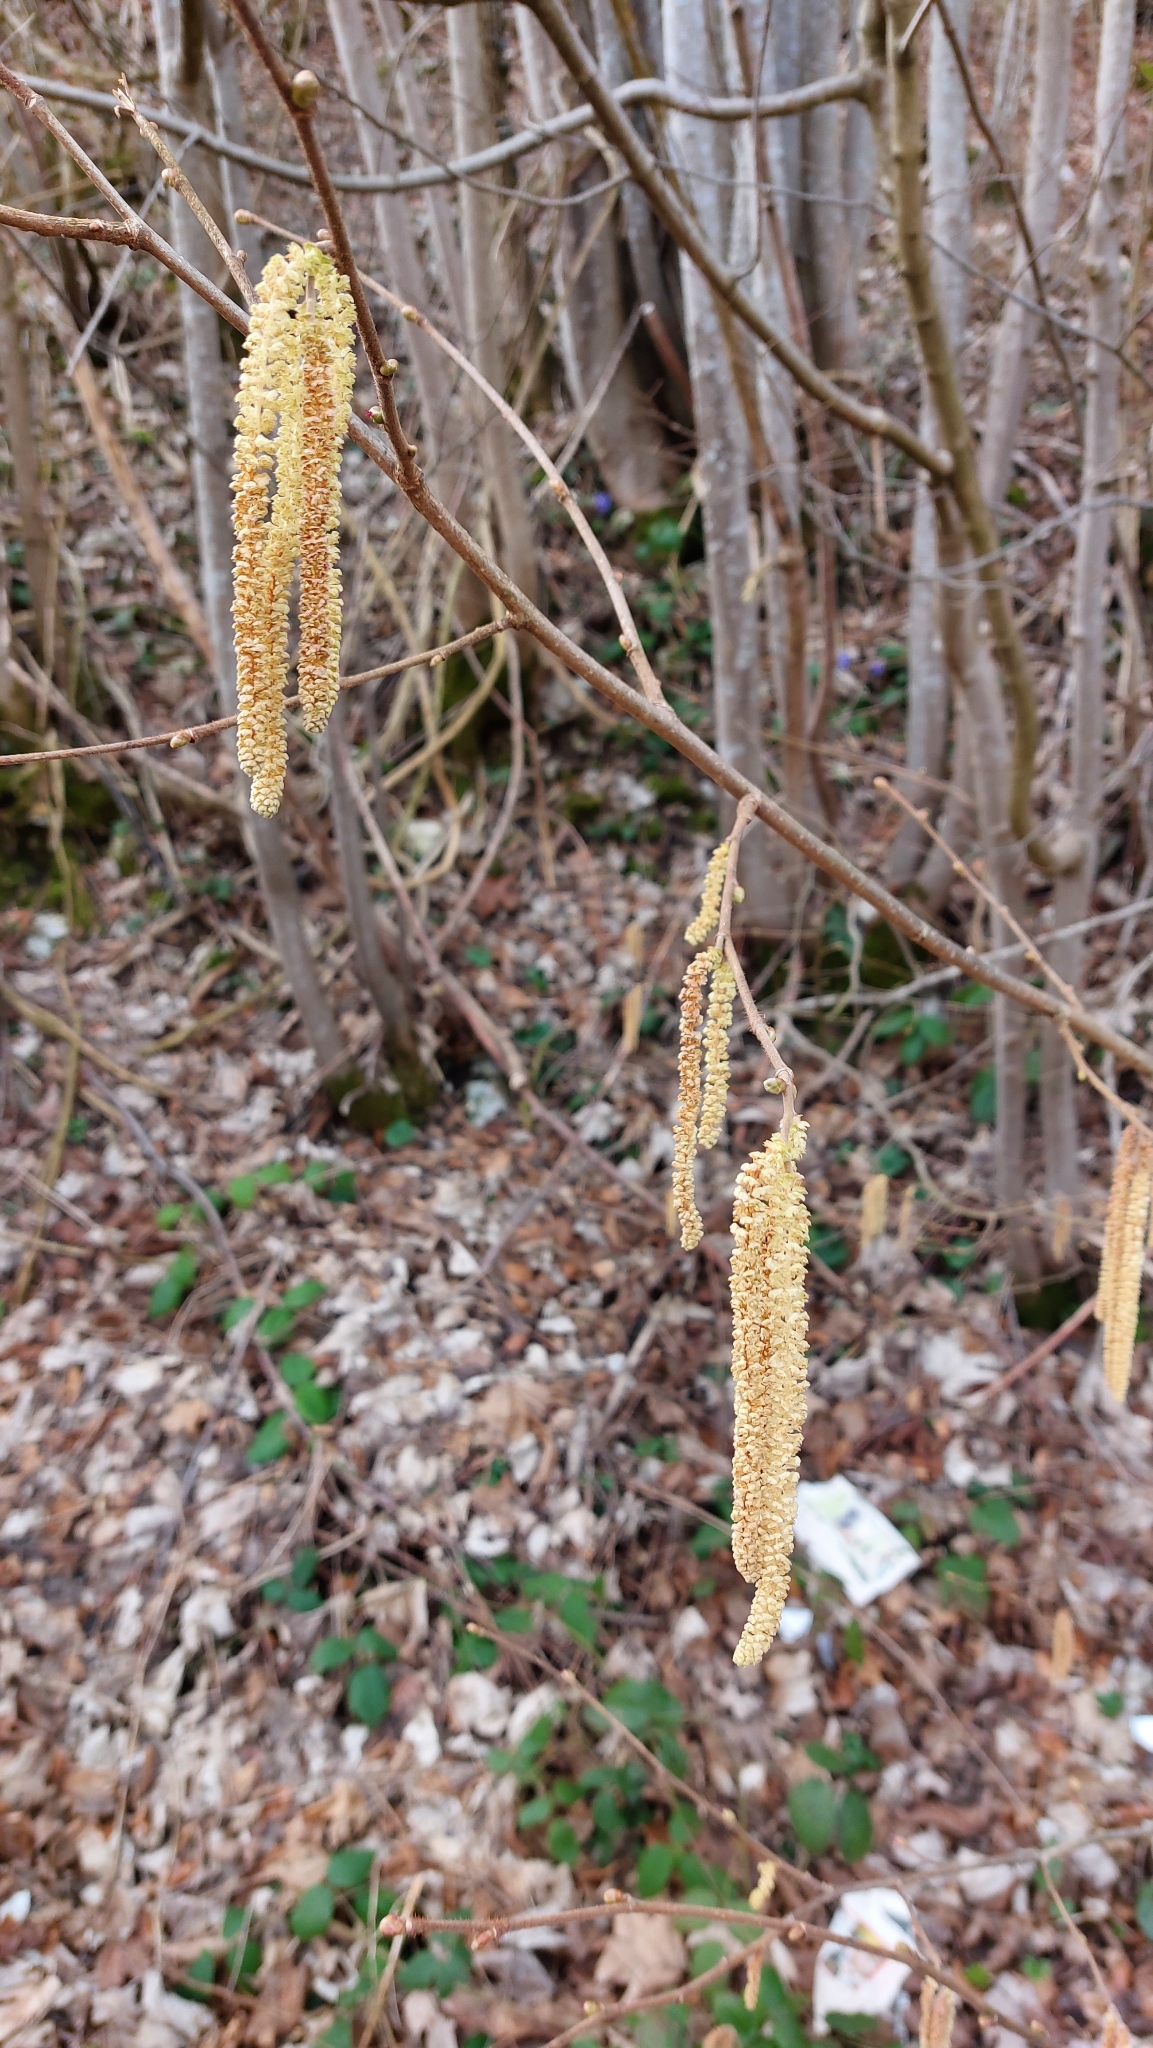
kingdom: Plantae
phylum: Tracheophyta
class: Magnoliopsida
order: Fagales
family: Betulaceae
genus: Corylus
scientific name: Corylus avellana
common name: European hazel
